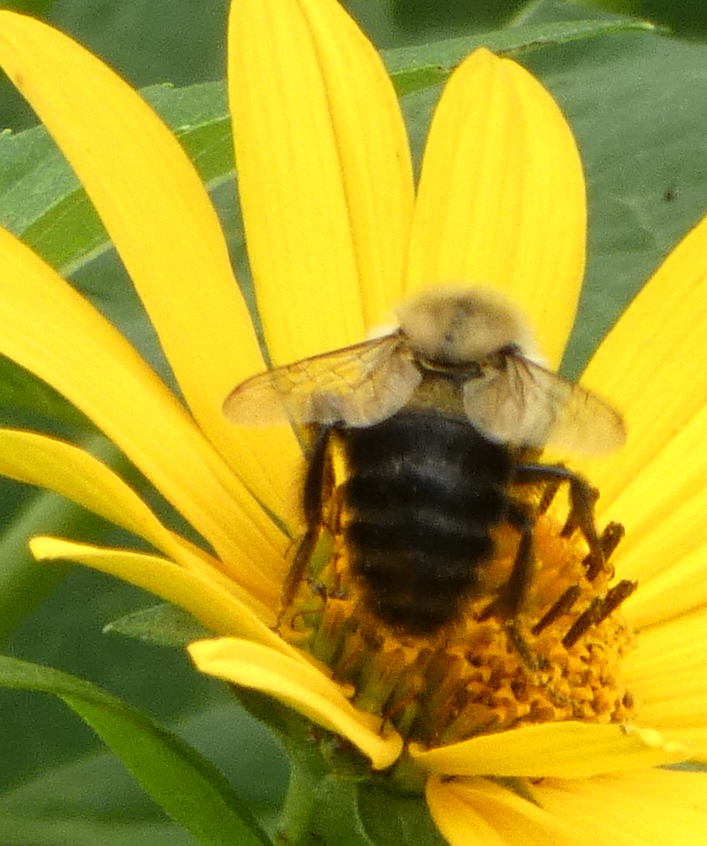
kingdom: Animalia
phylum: Arthropoda
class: Insecta
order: Hymenoptera
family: Apidae
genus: Bombus
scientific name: Bombus impatiens
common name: Common eastern bumble bee
